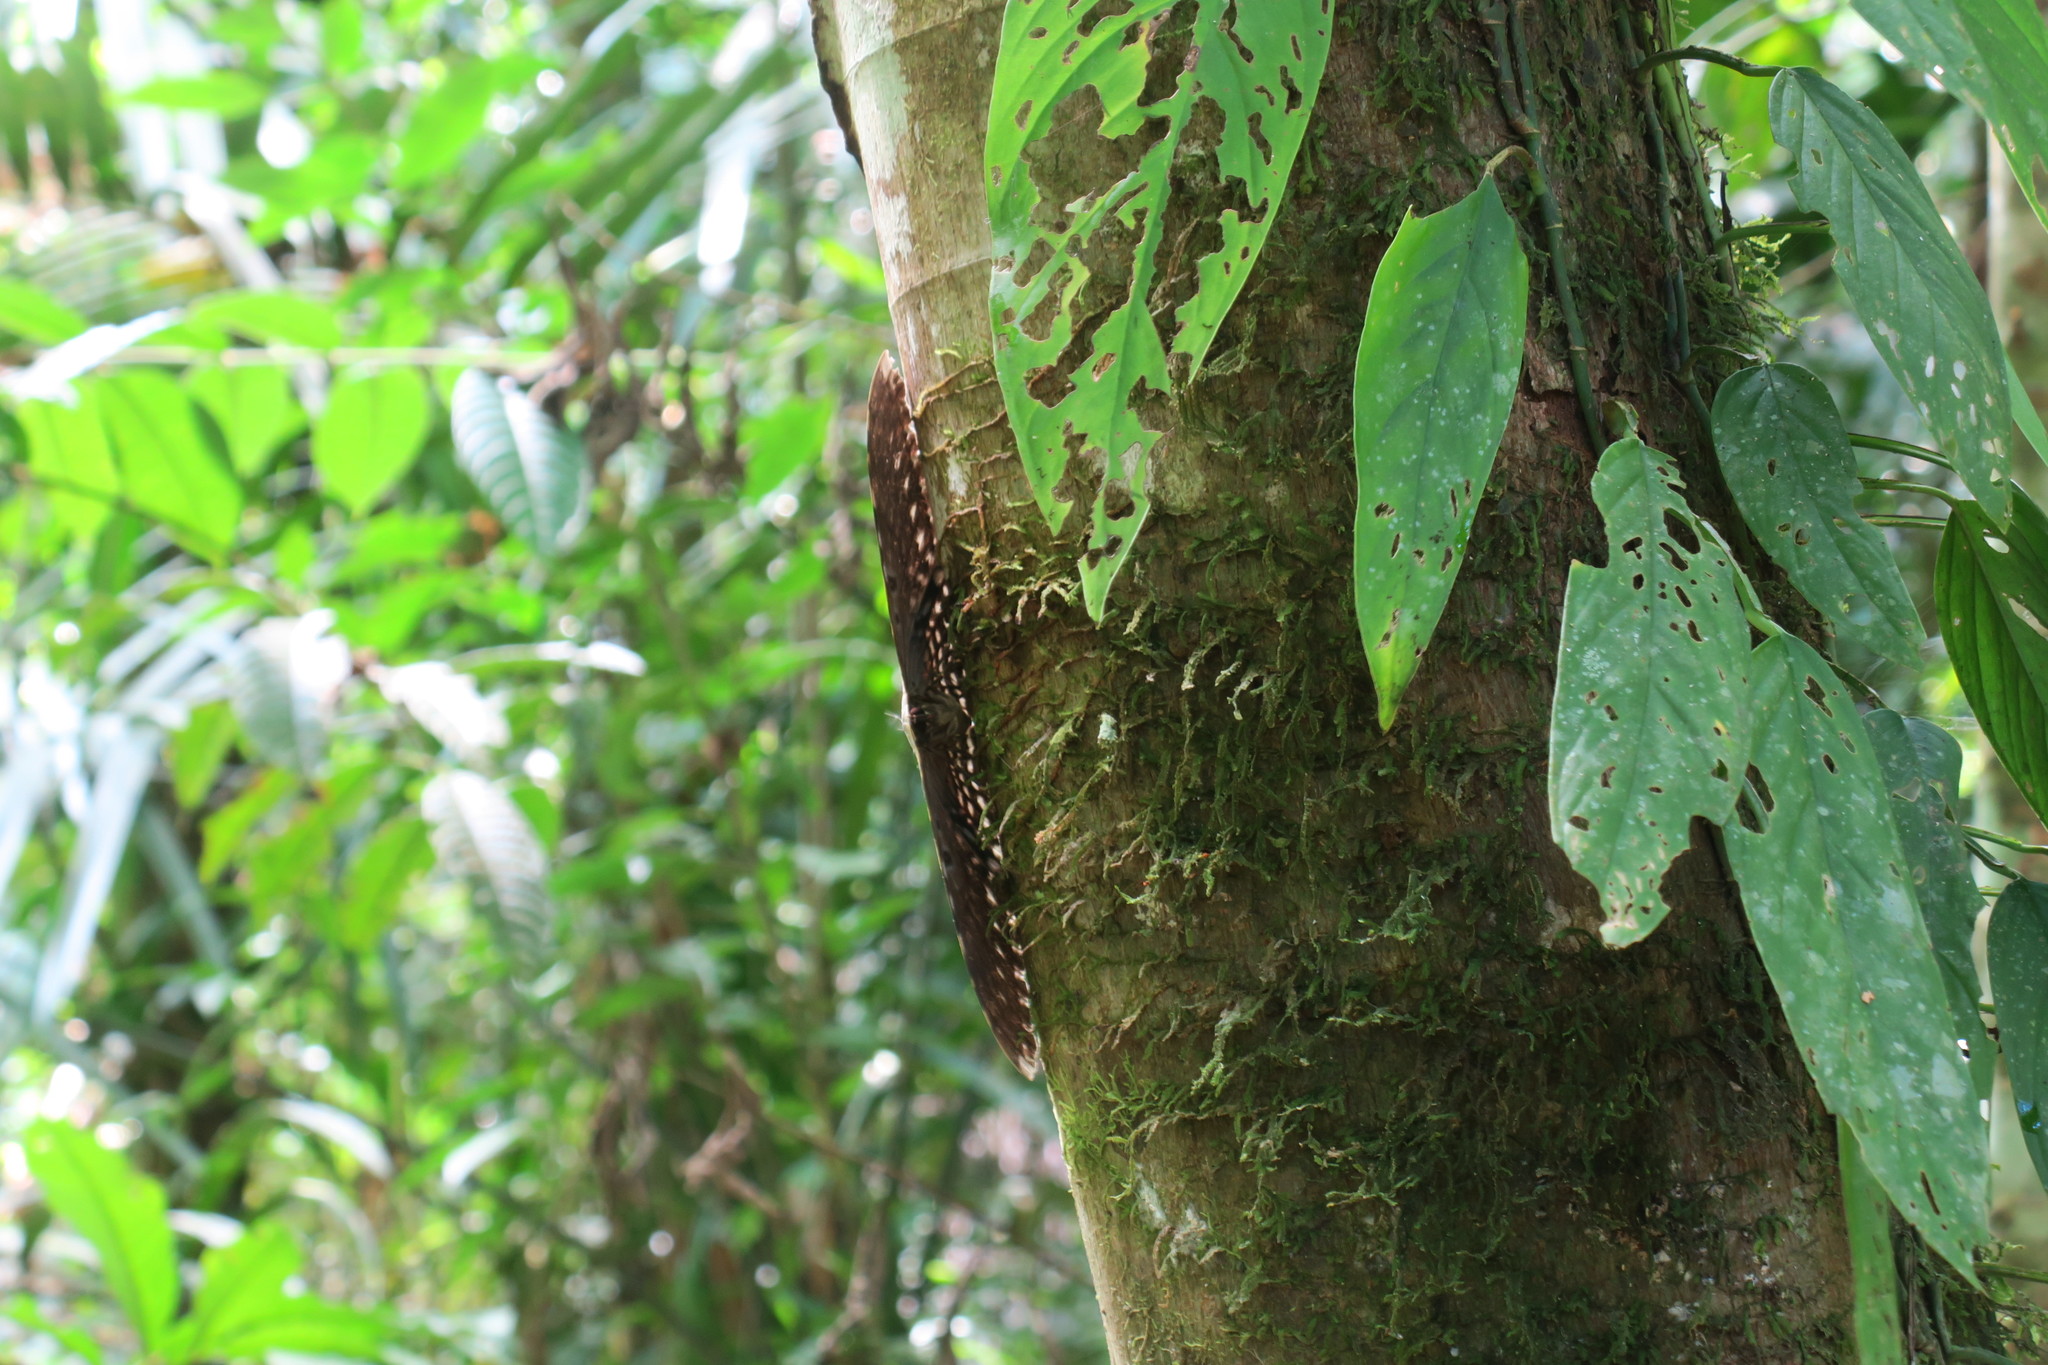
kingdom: Animalia
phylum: Arthropoda
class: Insecta
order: Lepidoptera
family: Erebidae
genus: Thysania
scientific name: Thysania agrippina
